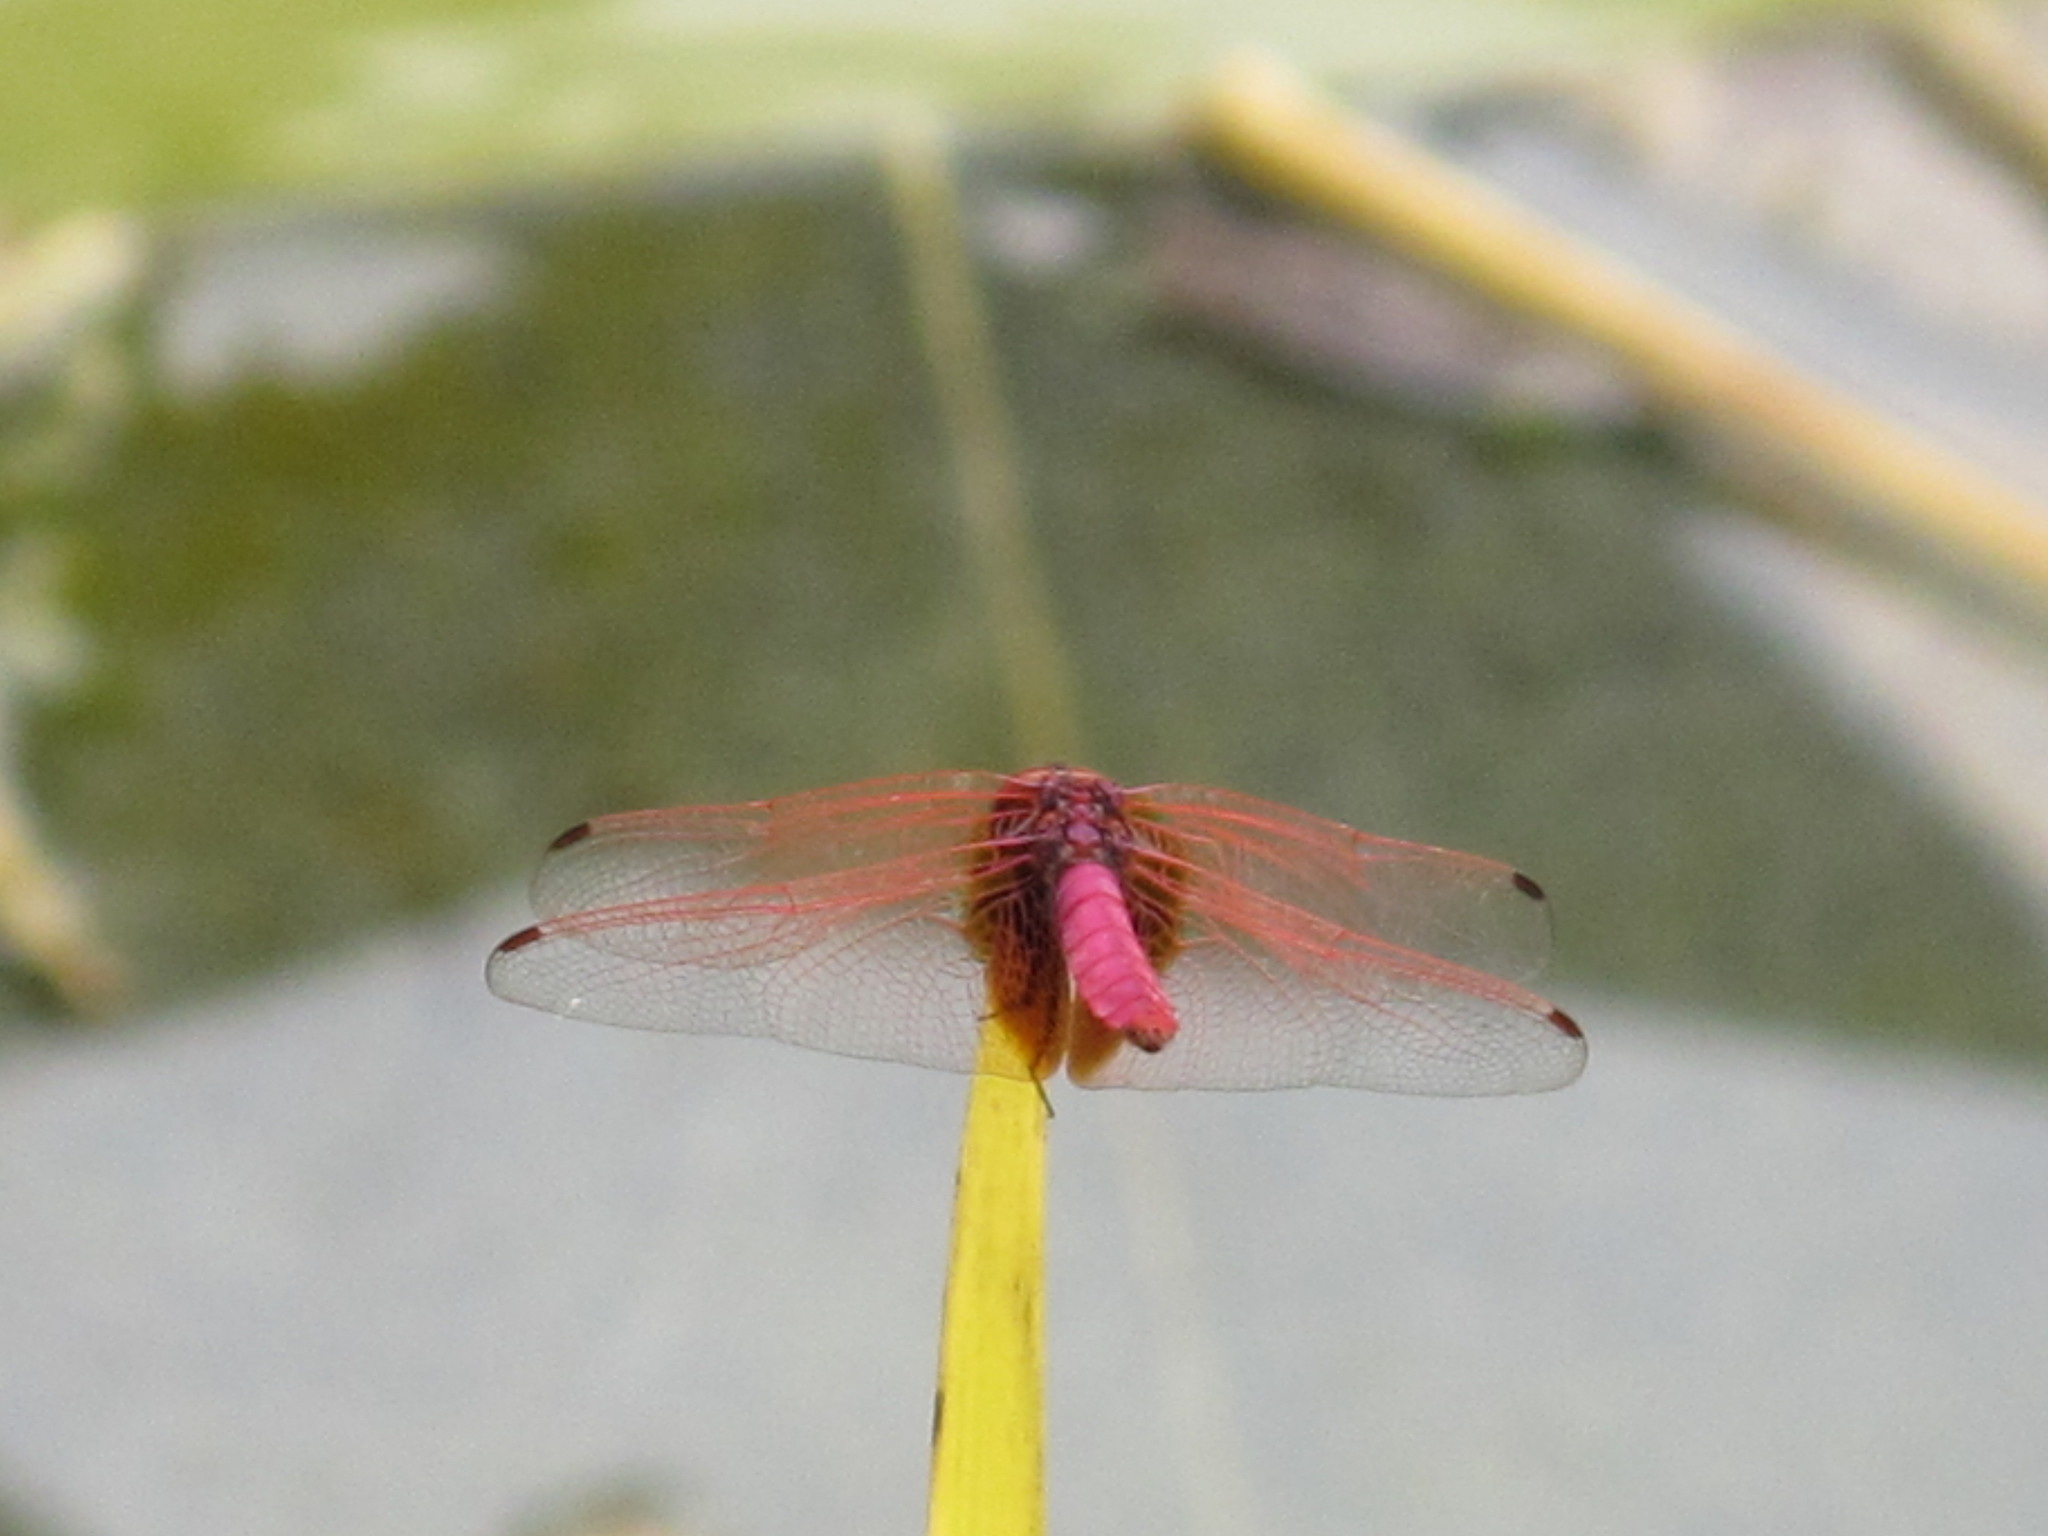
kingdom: Animalia
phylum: Arthropoda
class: Insecta
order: Odonata
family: Libellulidae
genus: Trithemis
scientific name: Trithemis aurora
